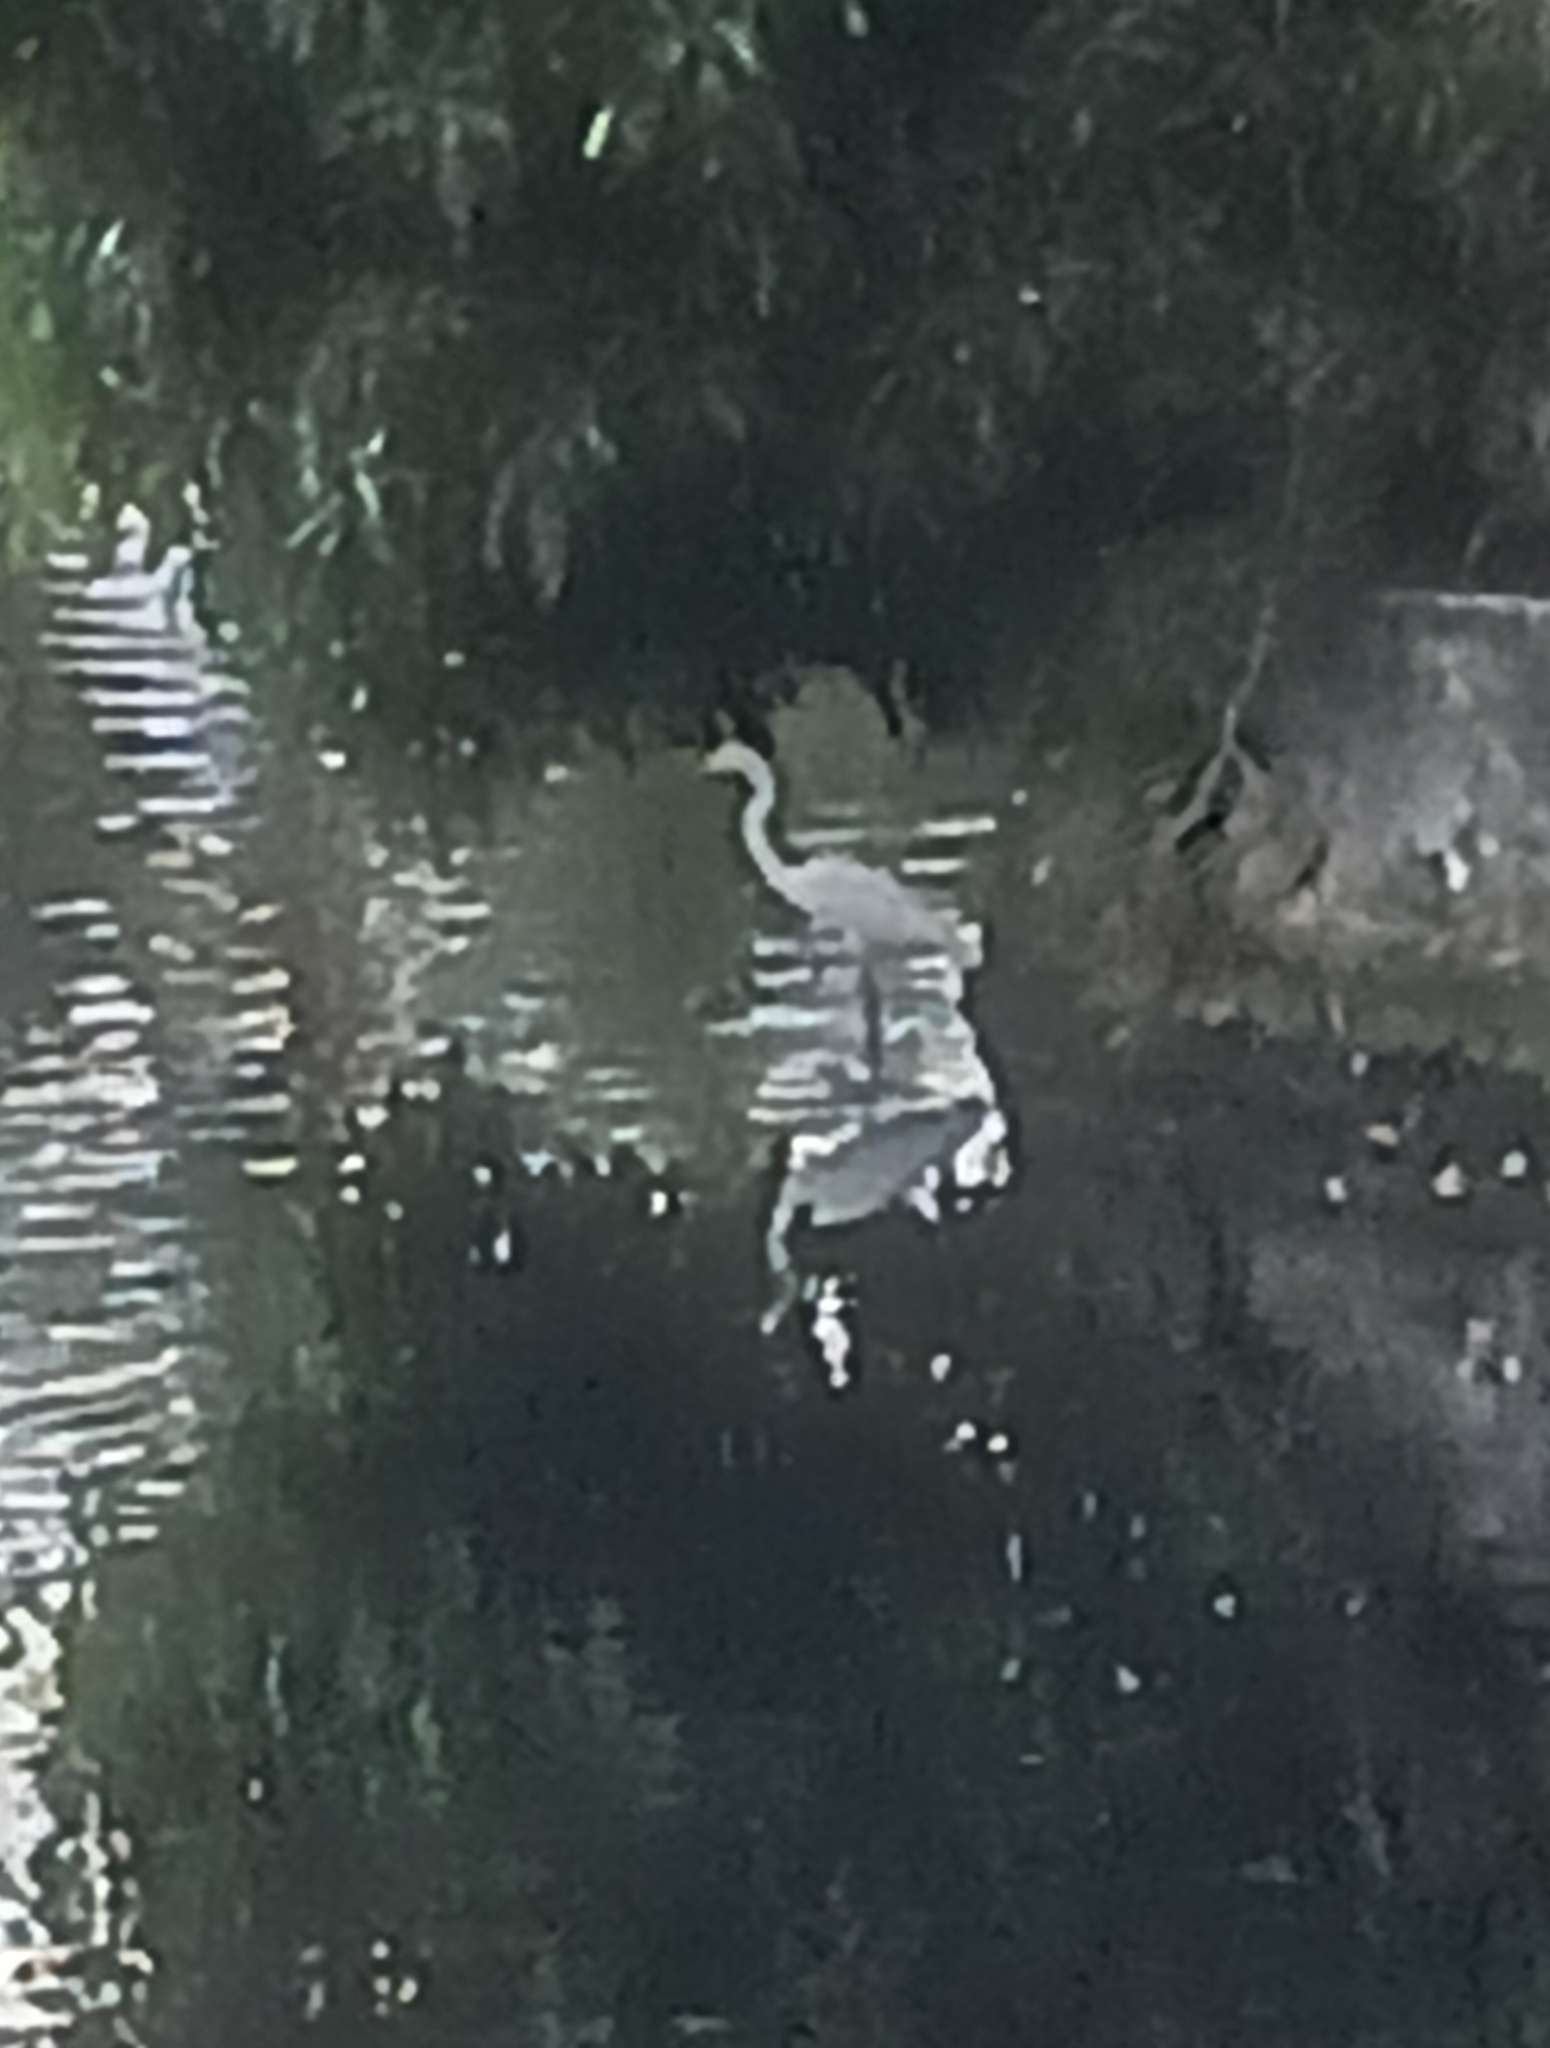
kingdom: Animalia
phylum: Chordata
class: Aves
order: Pelecaniformes
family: Ardeidae
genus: Ardea
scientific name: Ardea alba
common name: Great egret
